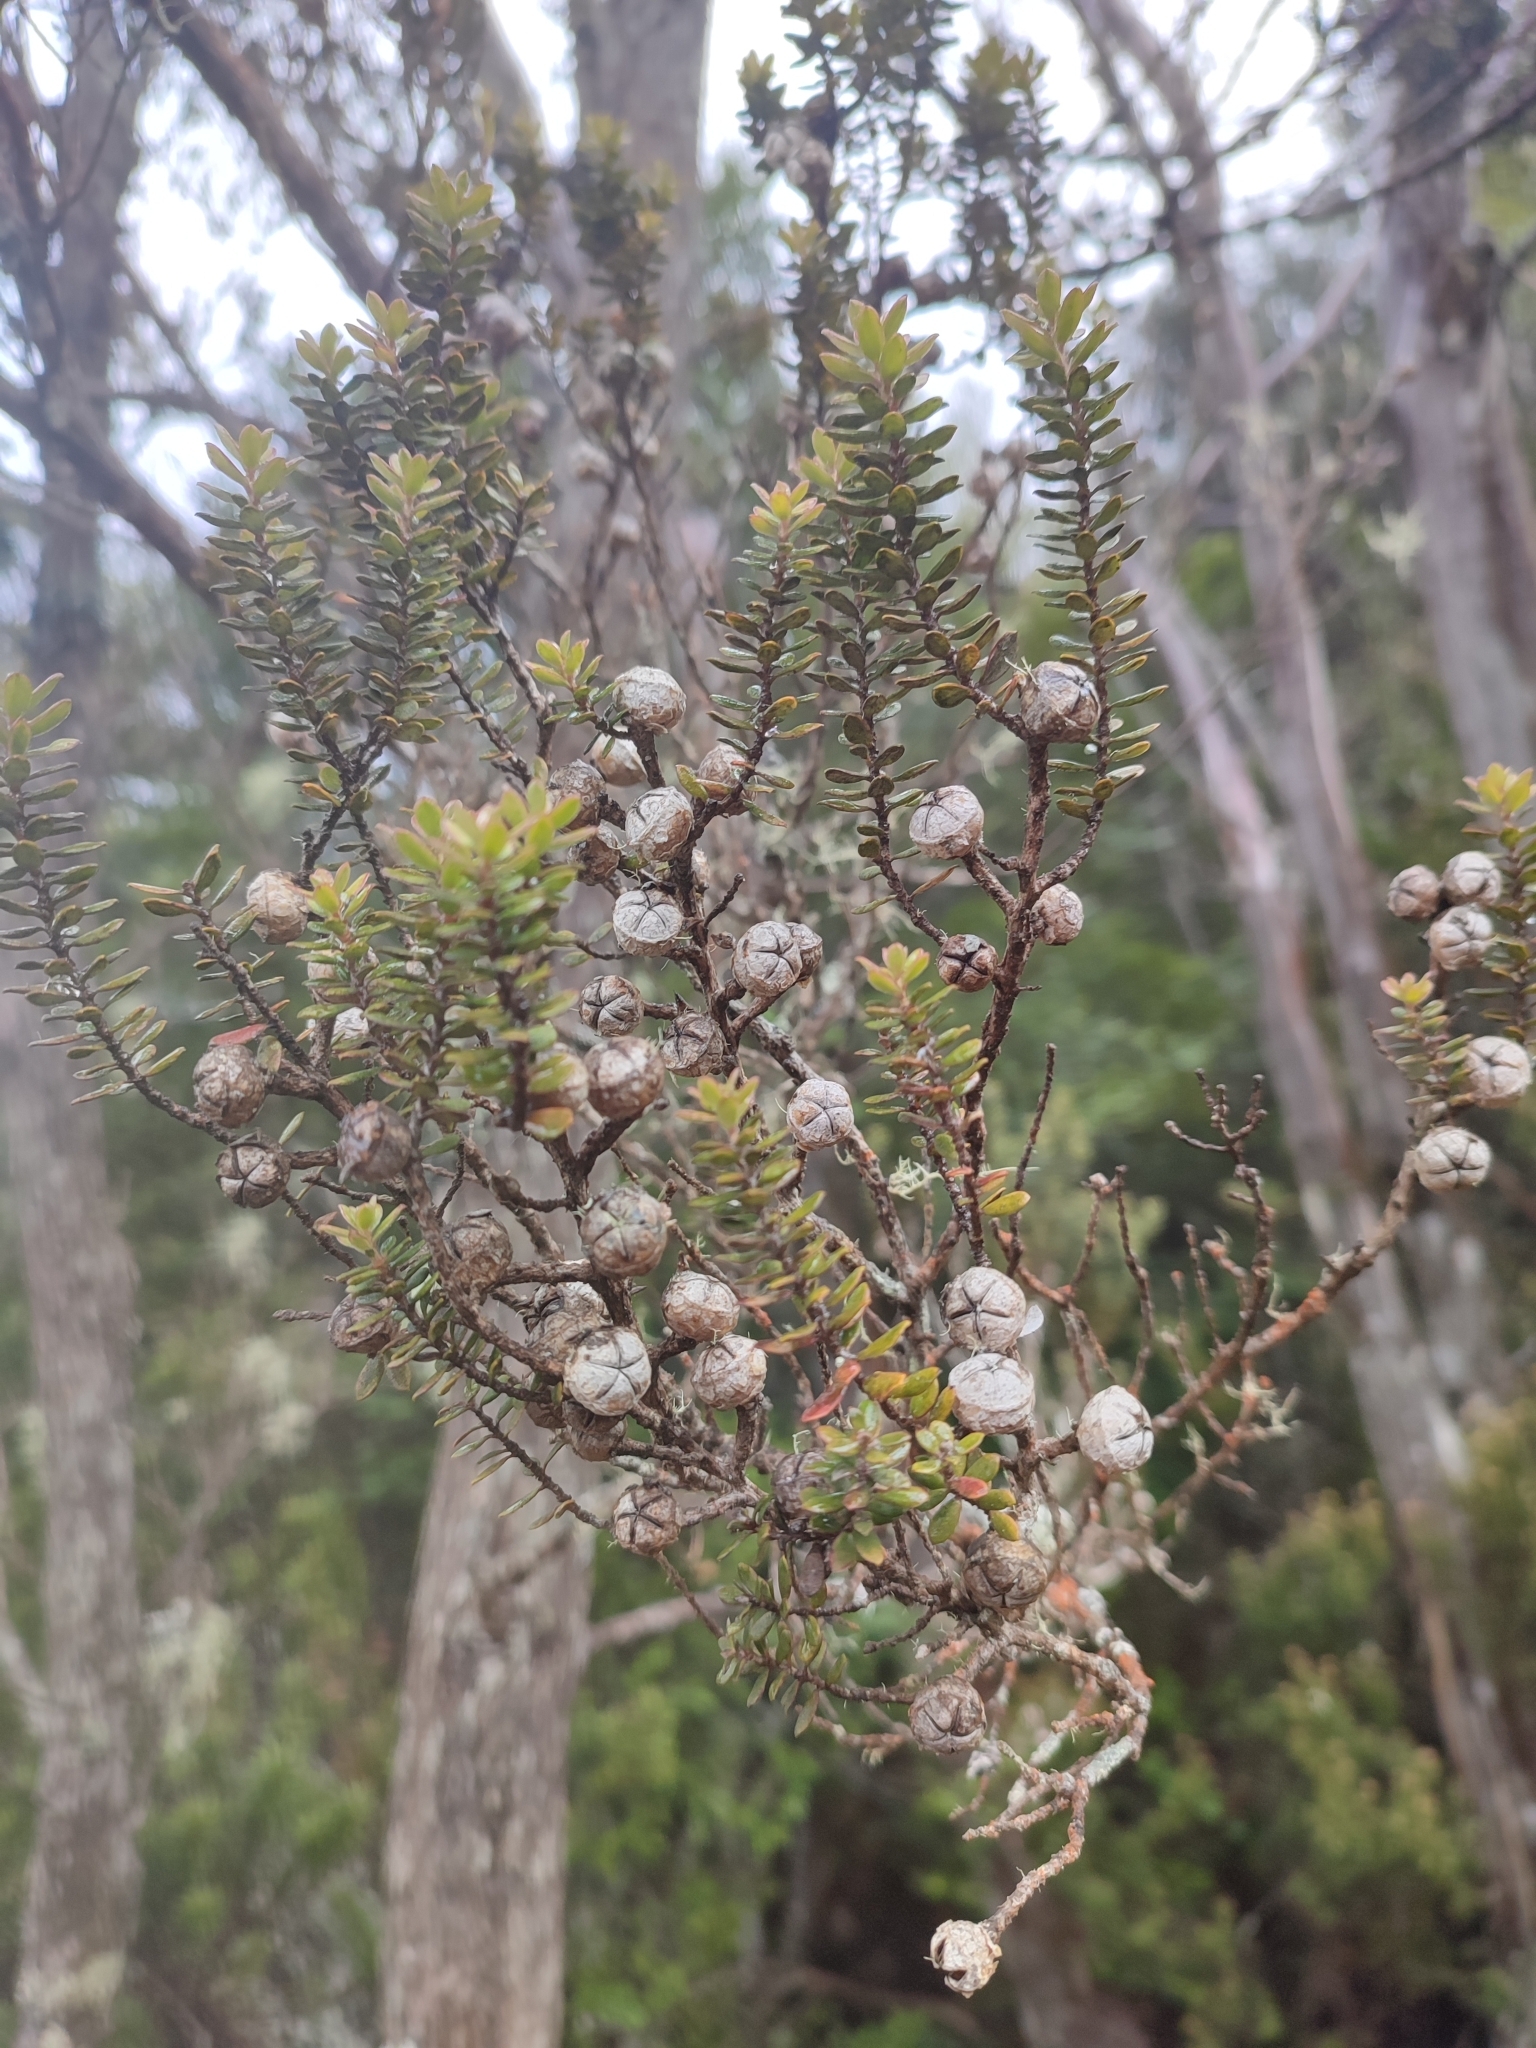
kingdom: Plantae
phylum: Tracheophyta
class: Magnoliopsida
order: Myrtales
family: Myrtaceae
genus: Leptospermum
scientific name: Leptospermum lanigerum
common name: Woolly tea-tree
